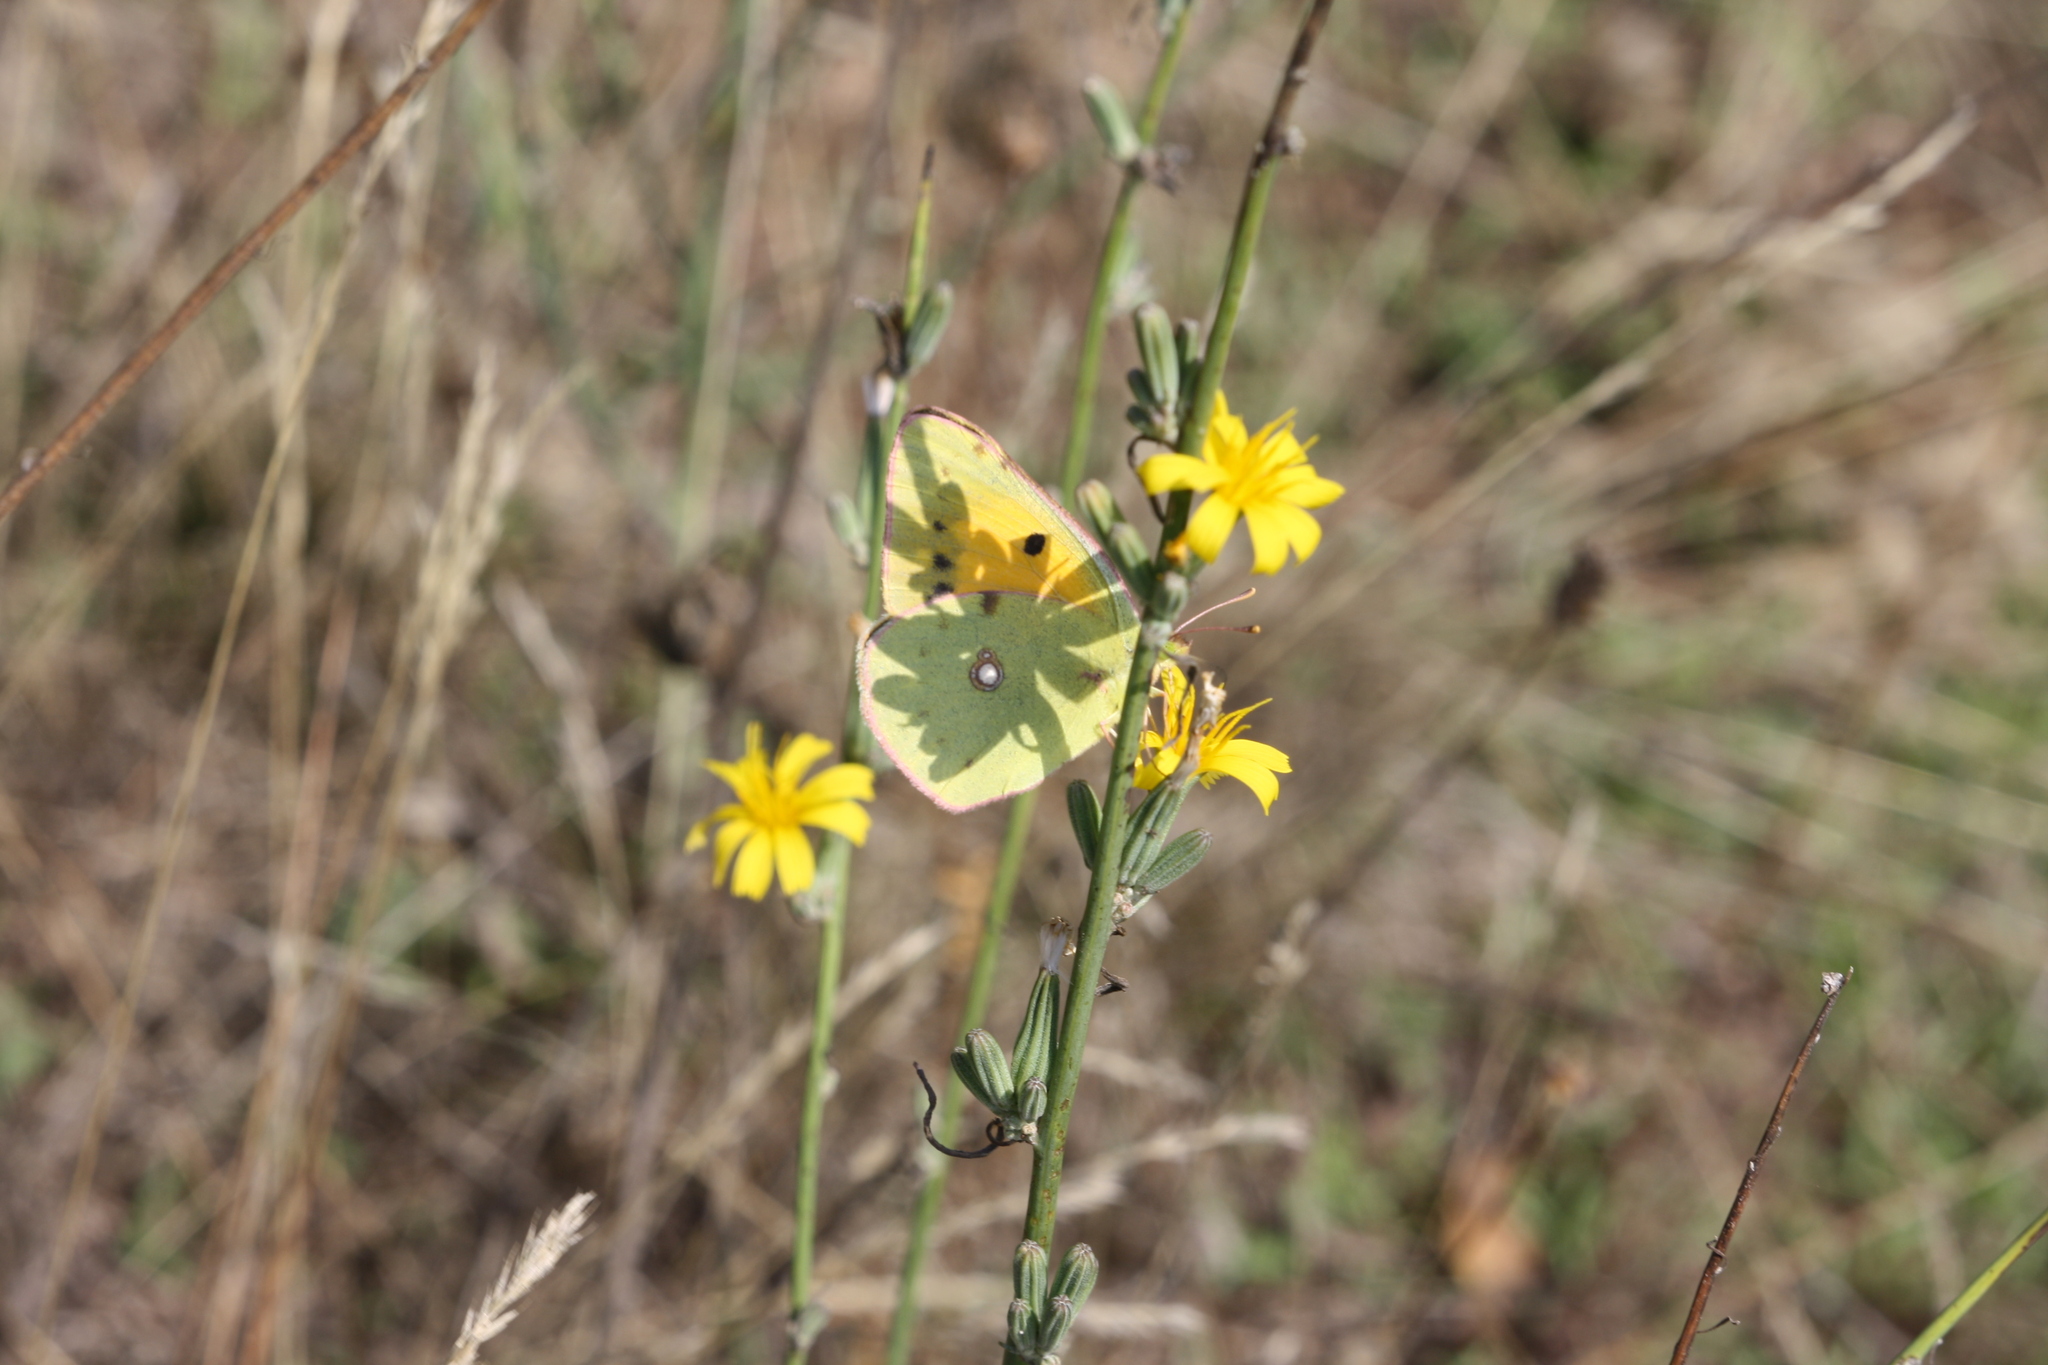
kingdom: Animalia
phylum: Arthropoda
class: Insecta
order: Lepidoptera
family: Pieridae
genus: Colias
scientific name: Colias croceus
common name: Clouded yellow
